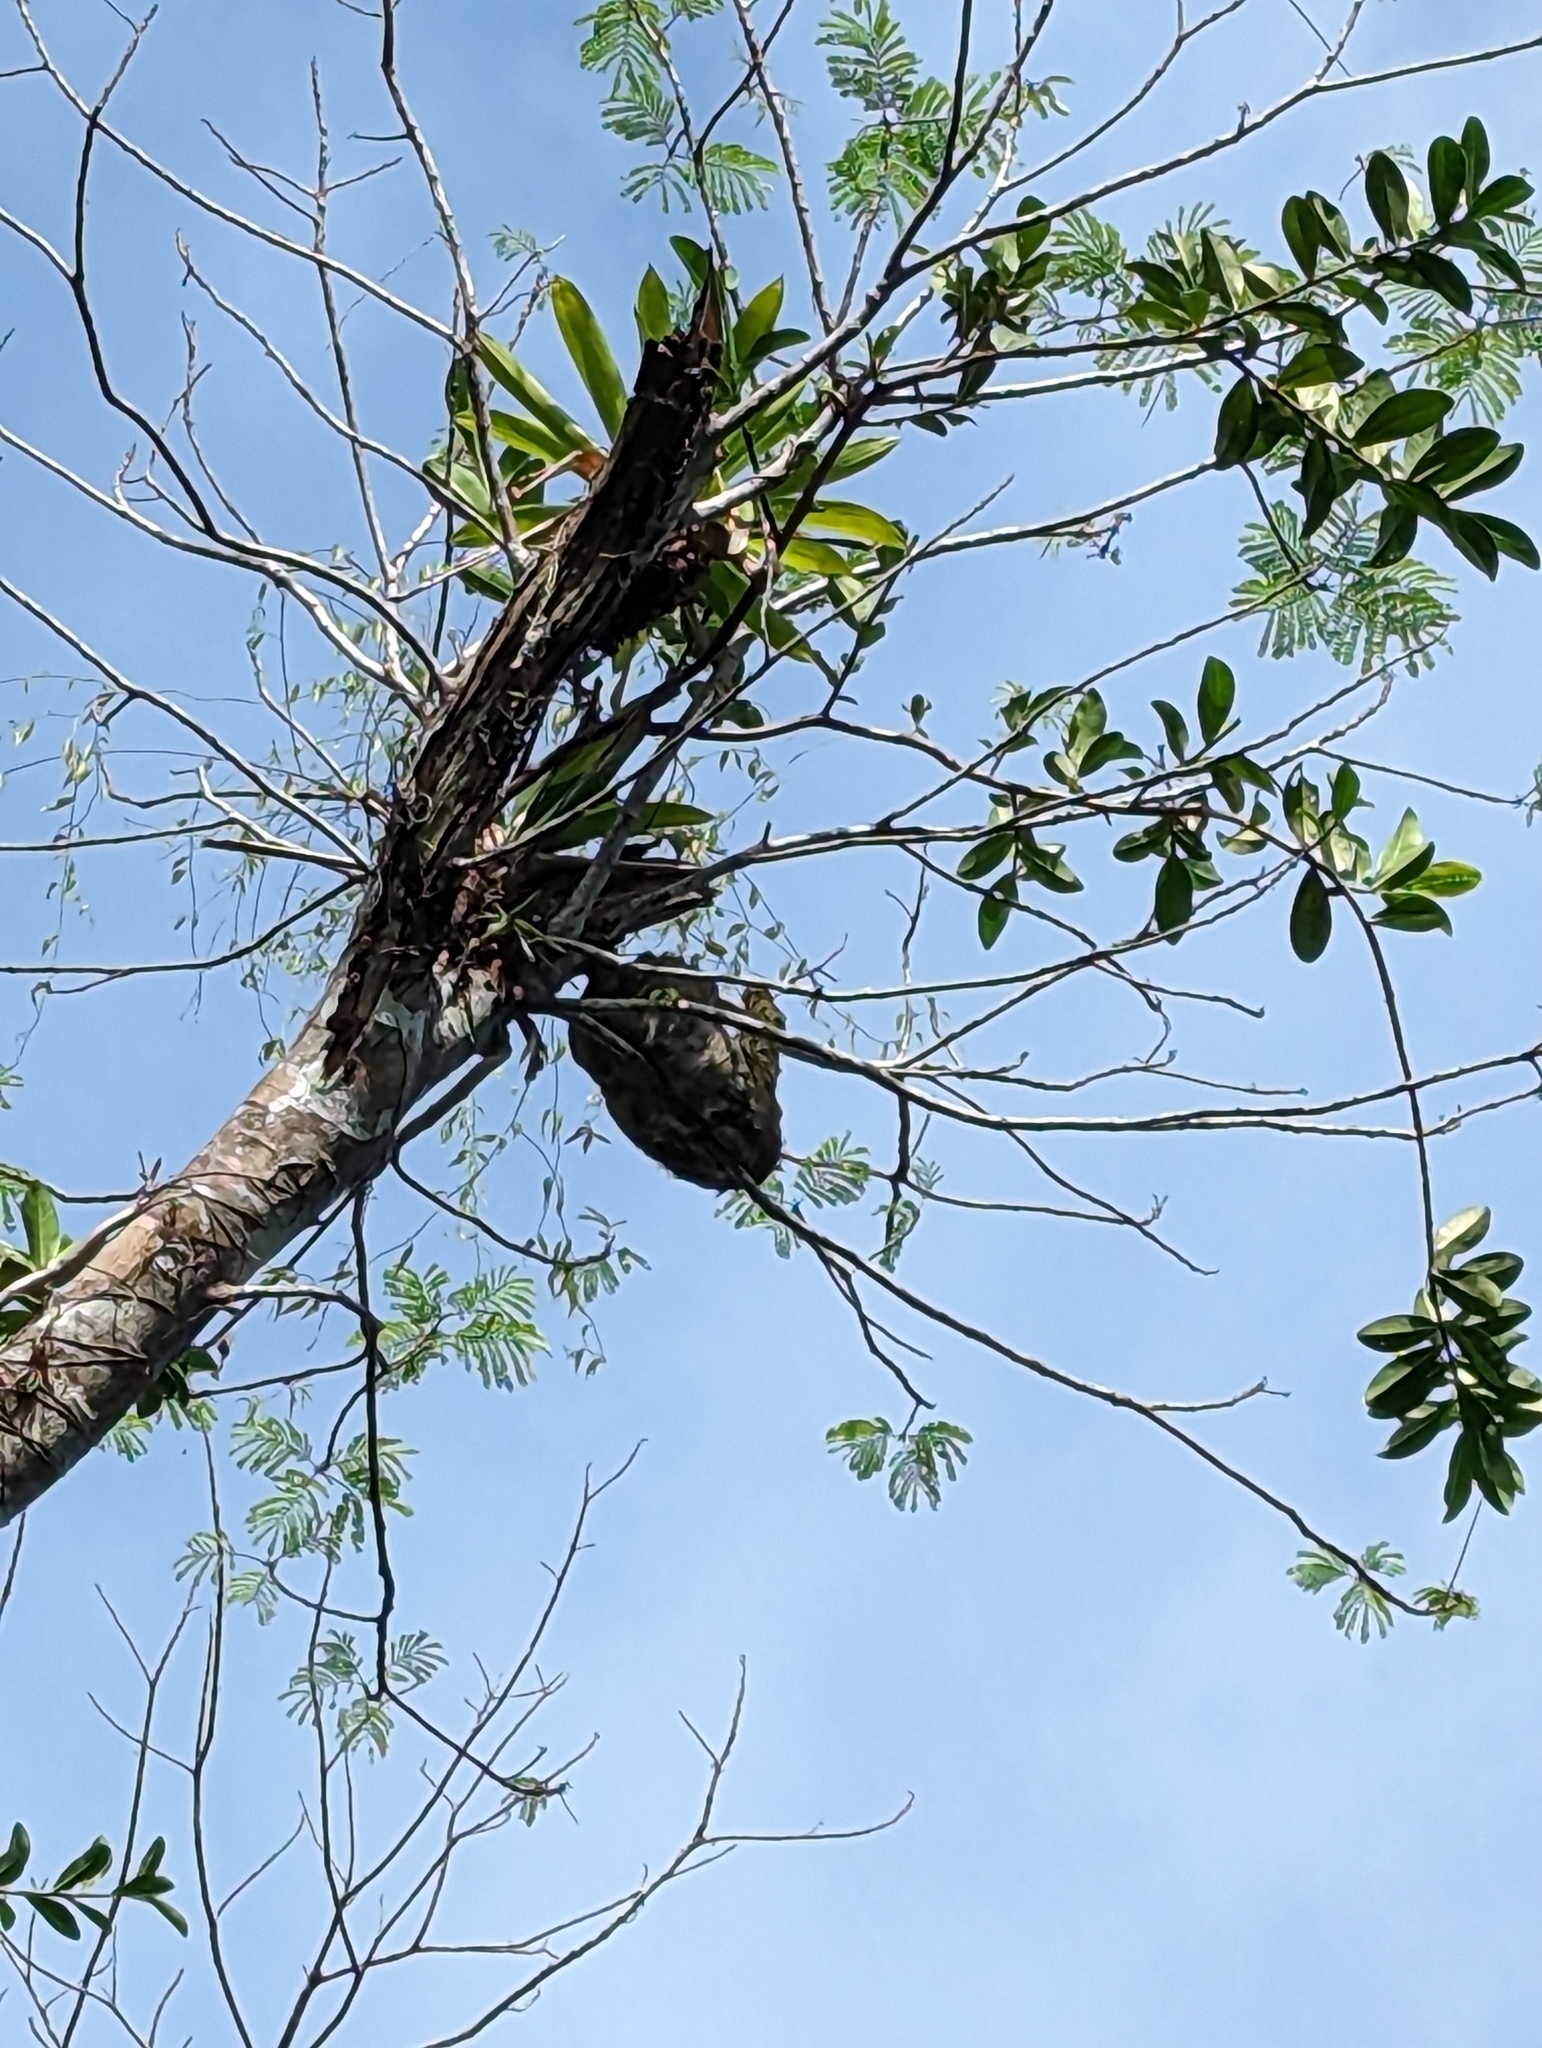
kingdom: Animalia
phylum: Chordata
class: Mammalia
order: Pilosa
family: Bradypodidae
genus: Bradypus
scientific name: Bradypus variegatus
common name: Brown-throated three-toed sloth
